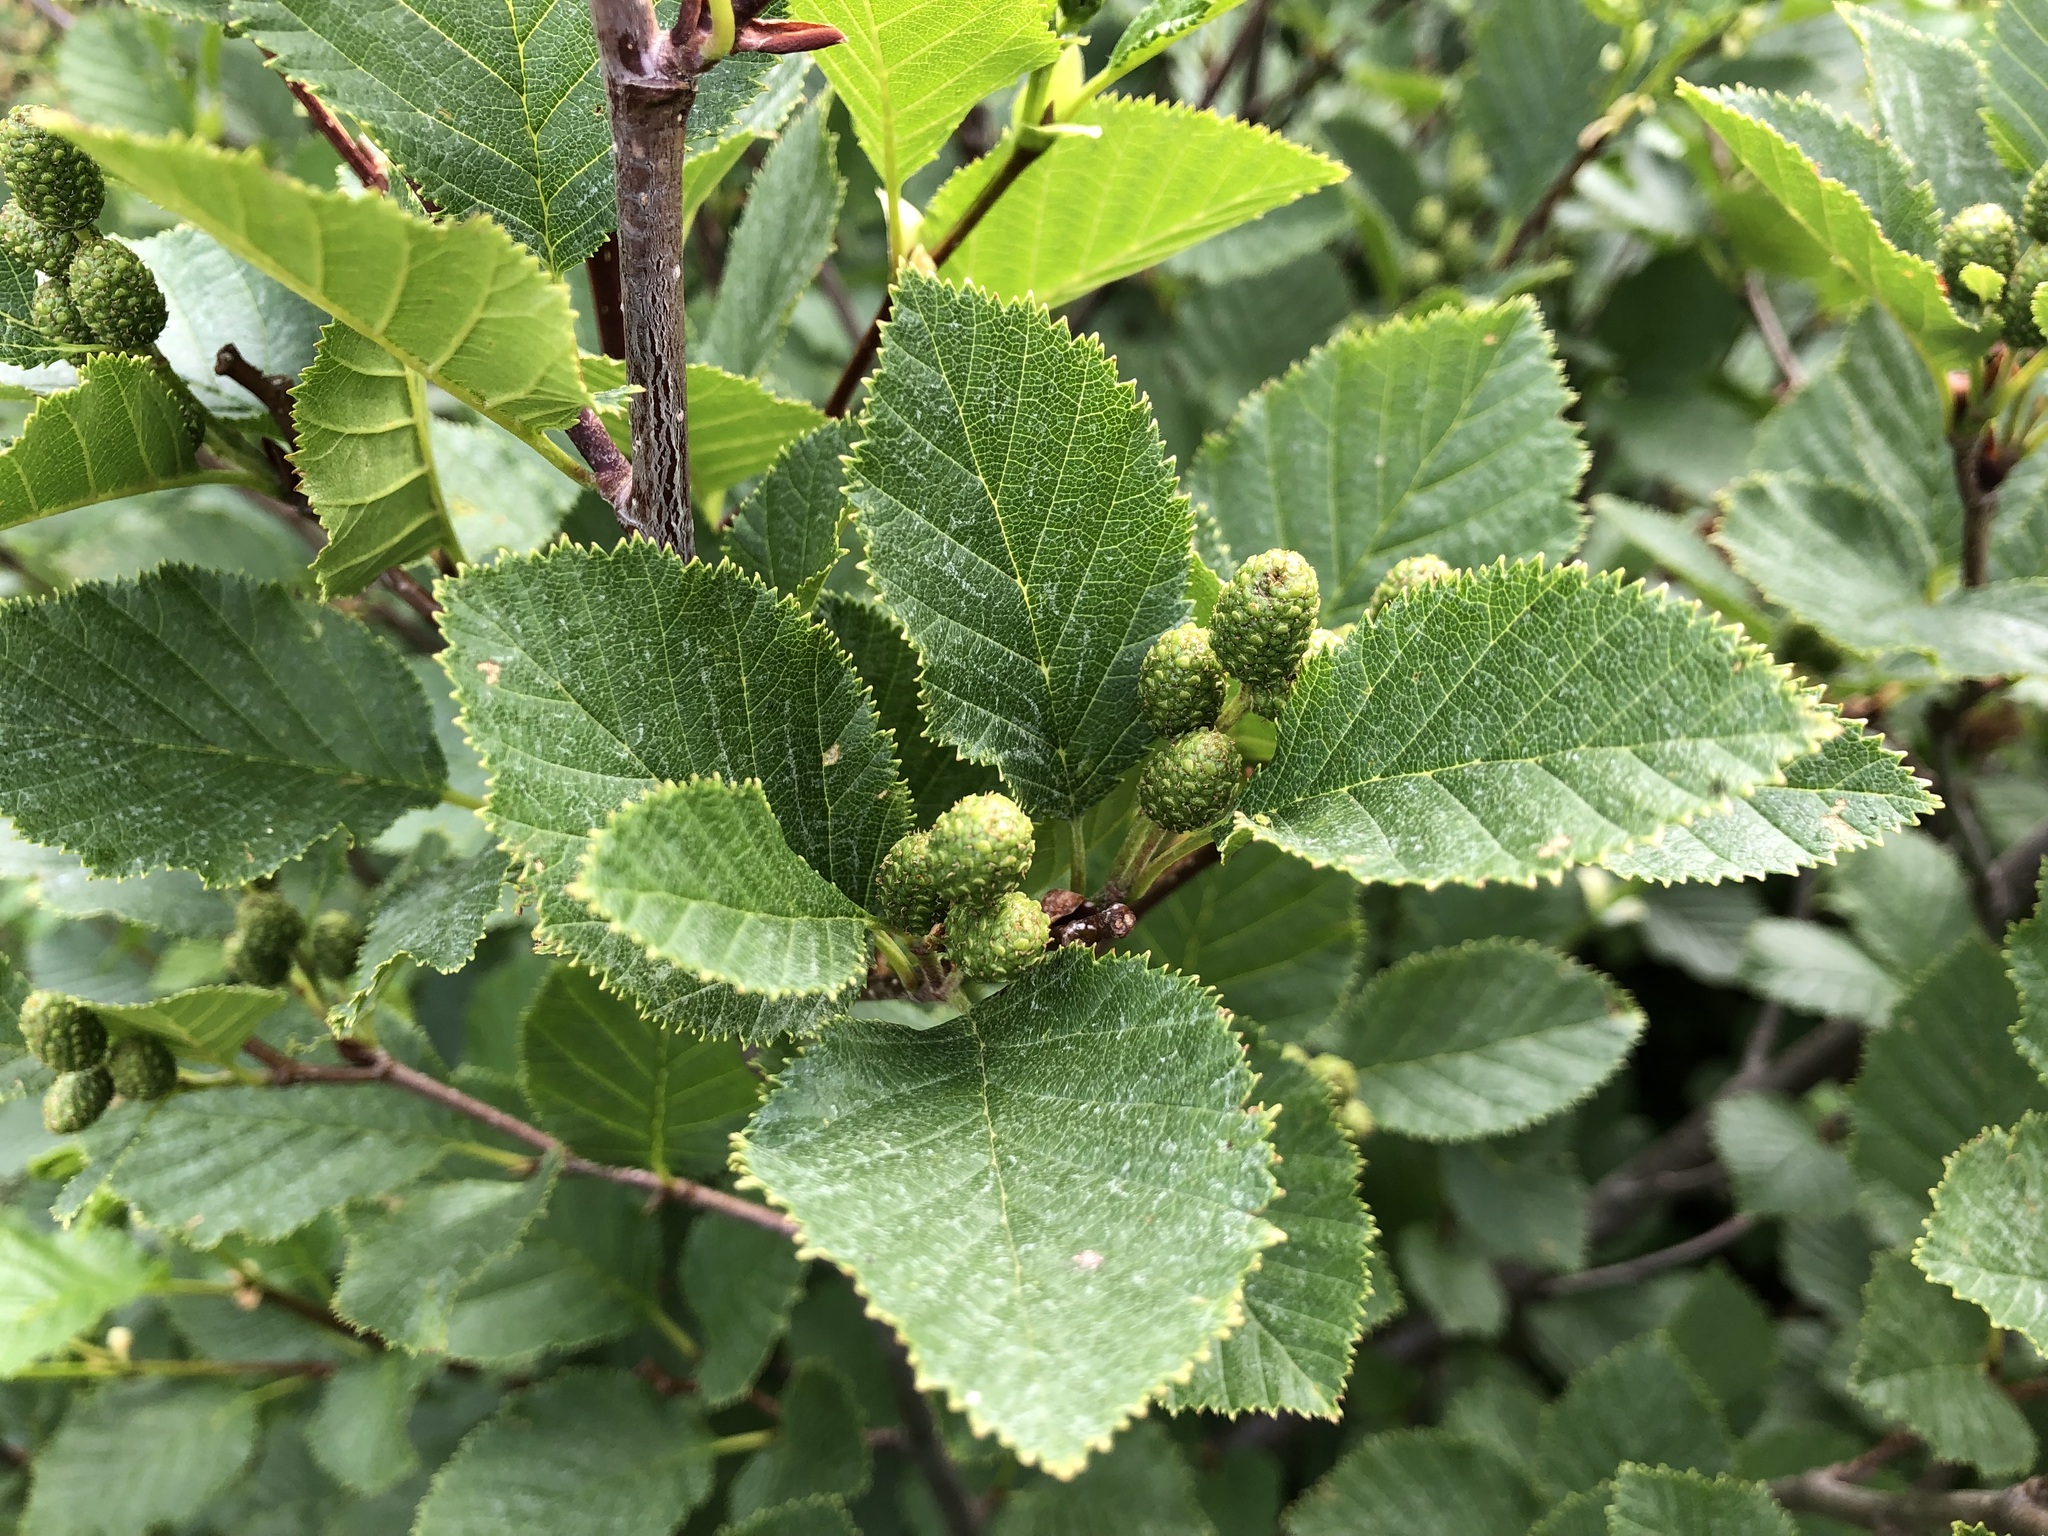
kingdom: Plantae
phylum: Tracheophyta
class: Magnoliopsida
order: Fagales
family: Betulaceae
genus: Alnus
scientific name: Alnus alnobetula
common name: Green alder
